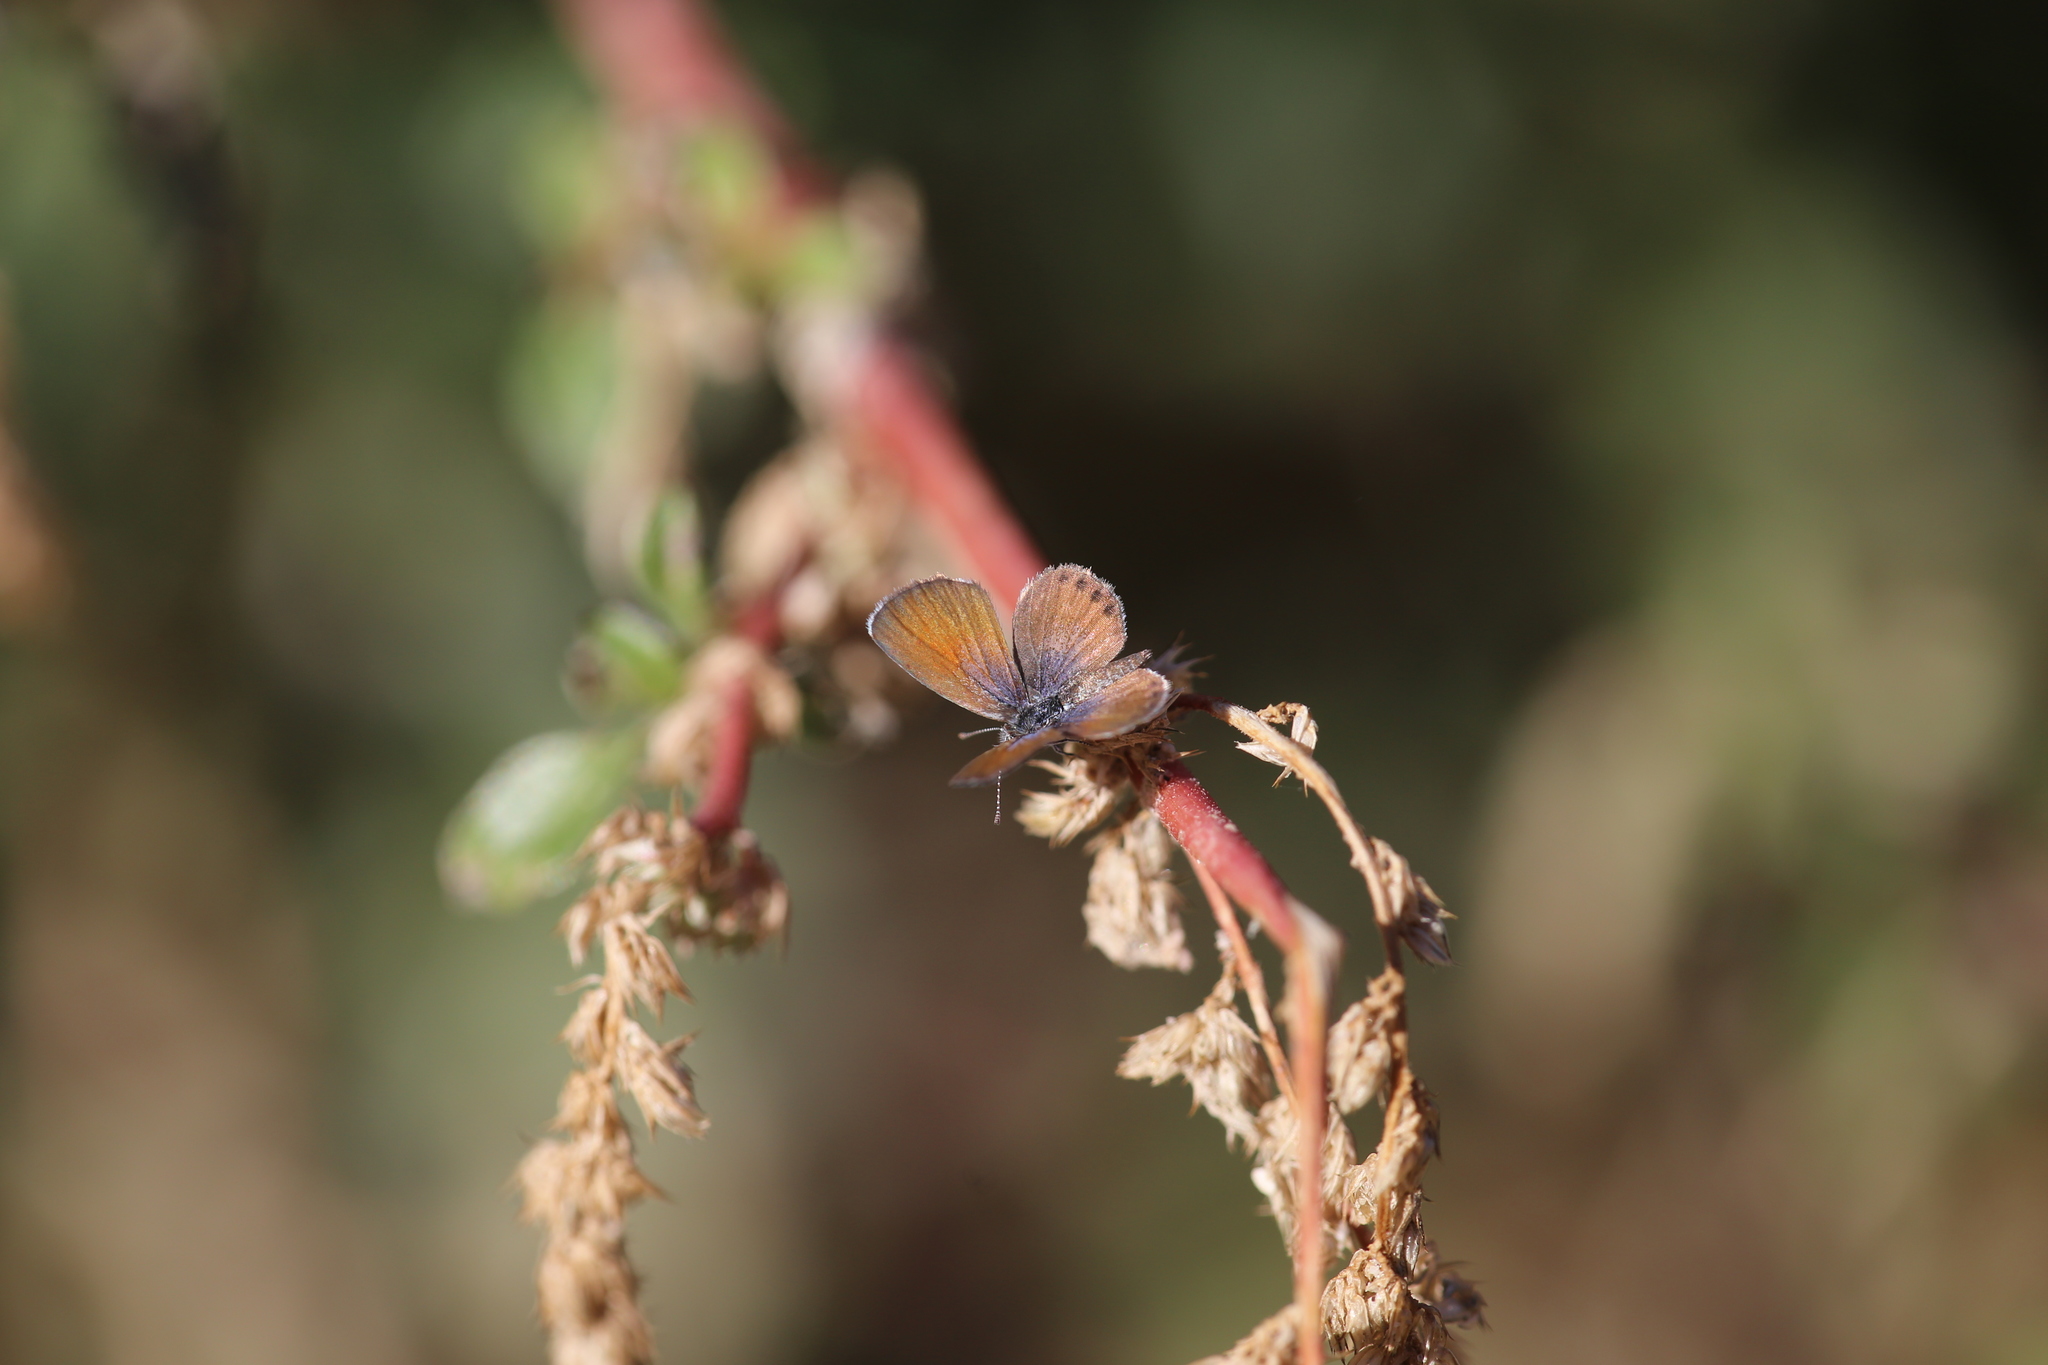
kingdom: Animalia
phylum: Arthropoda
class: Insecta
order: Lepidoptera
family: Lycaenidae
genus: Brephidium
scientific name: Brephidium exilis
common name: Pygmy blue
